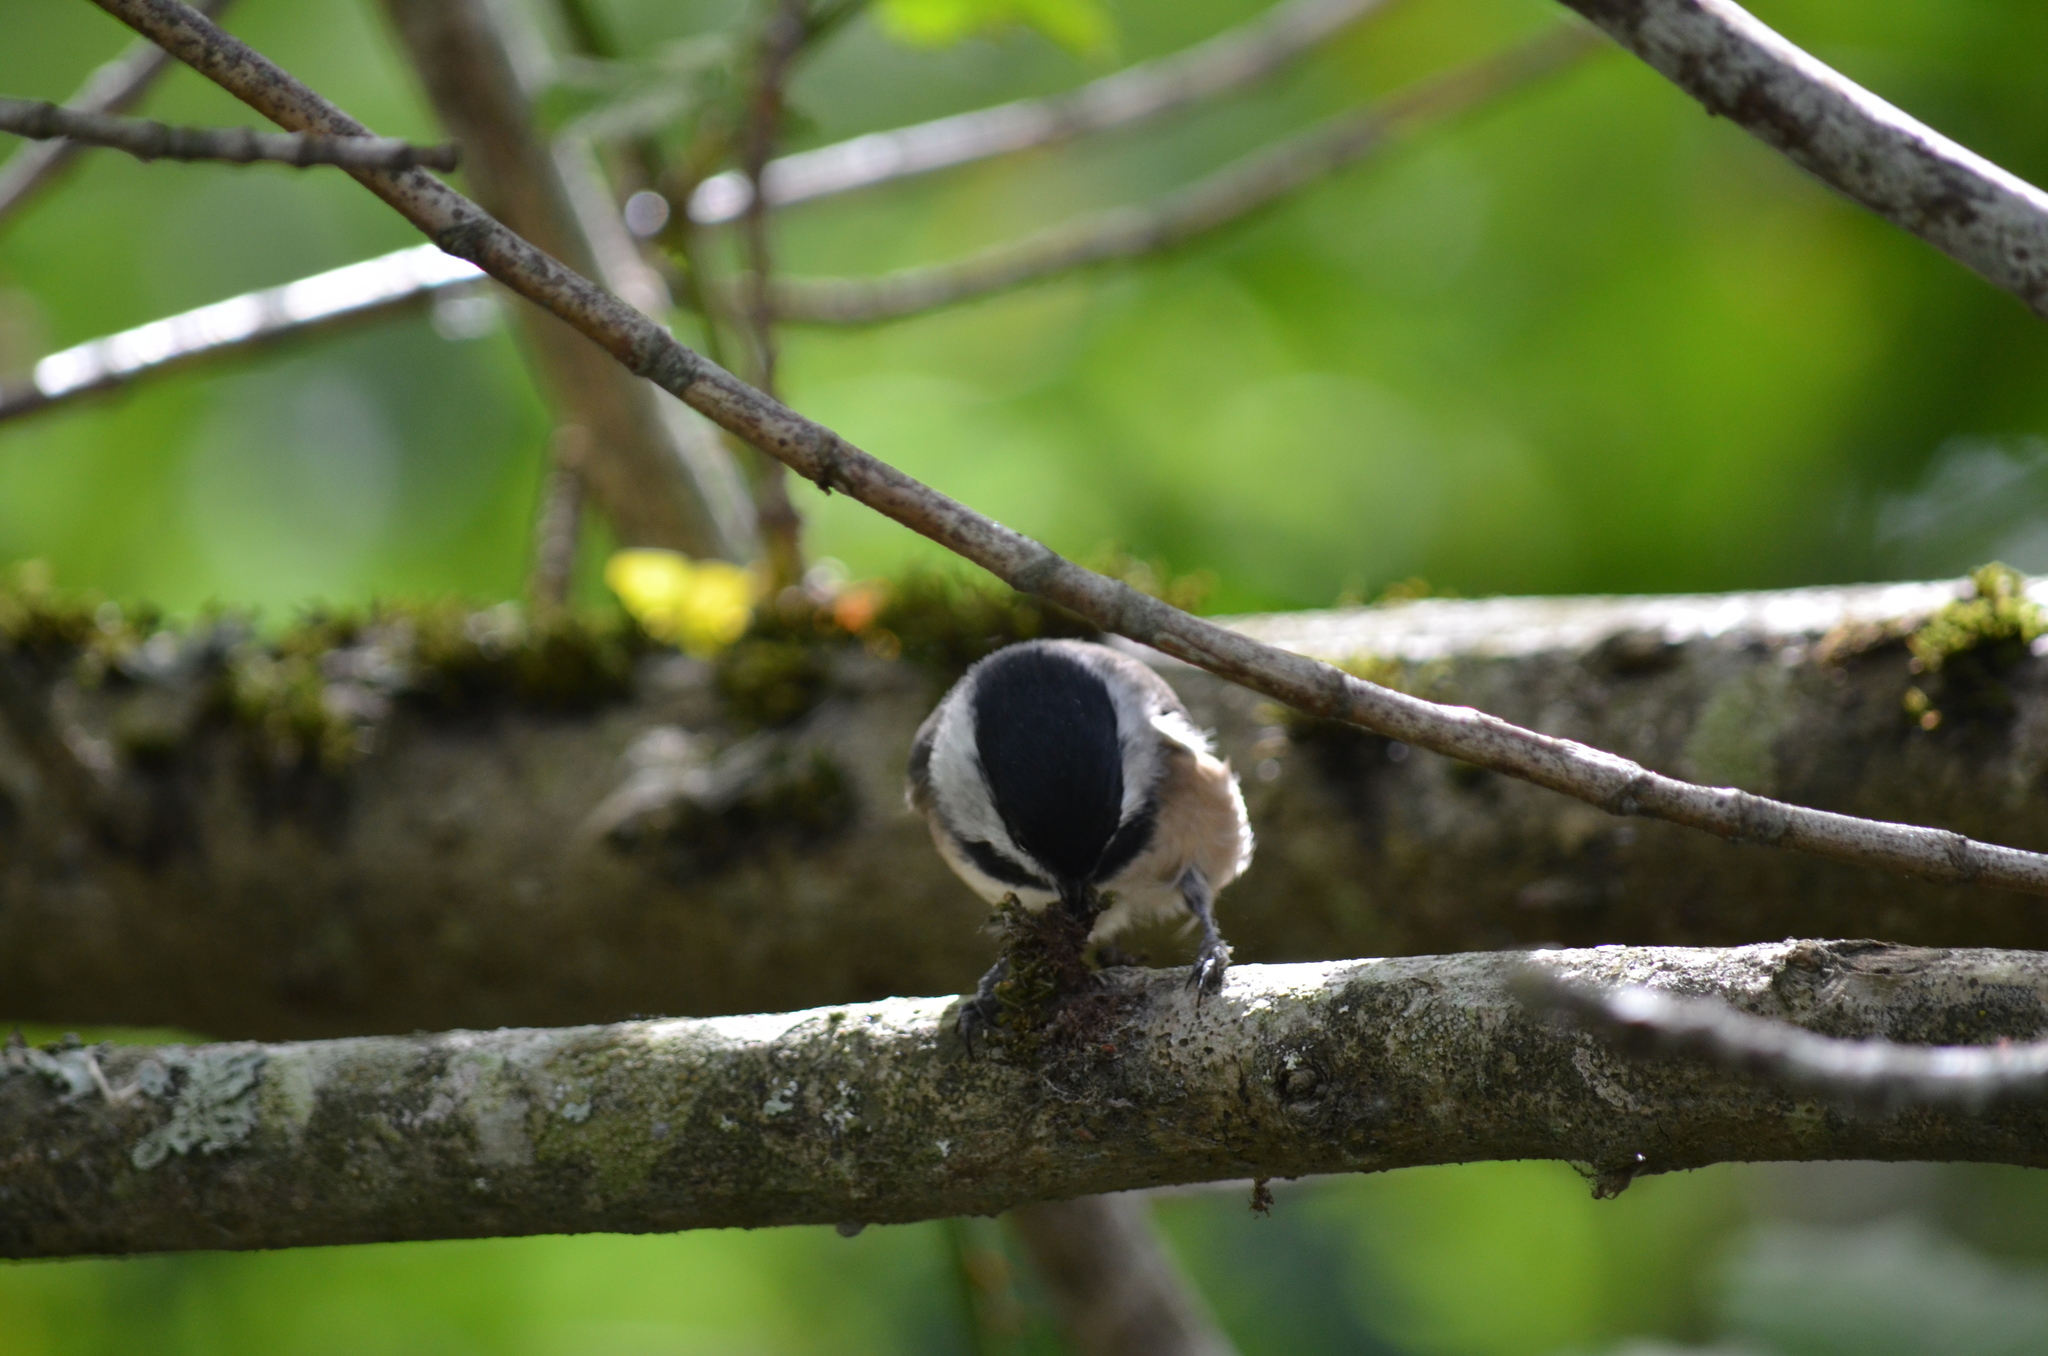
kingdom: Animalia
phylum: Chordata
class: Aves
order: Passeriformes
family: Paridae
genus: Poecile
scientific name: Poecile atricapillus
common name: Black-capped chickadee
